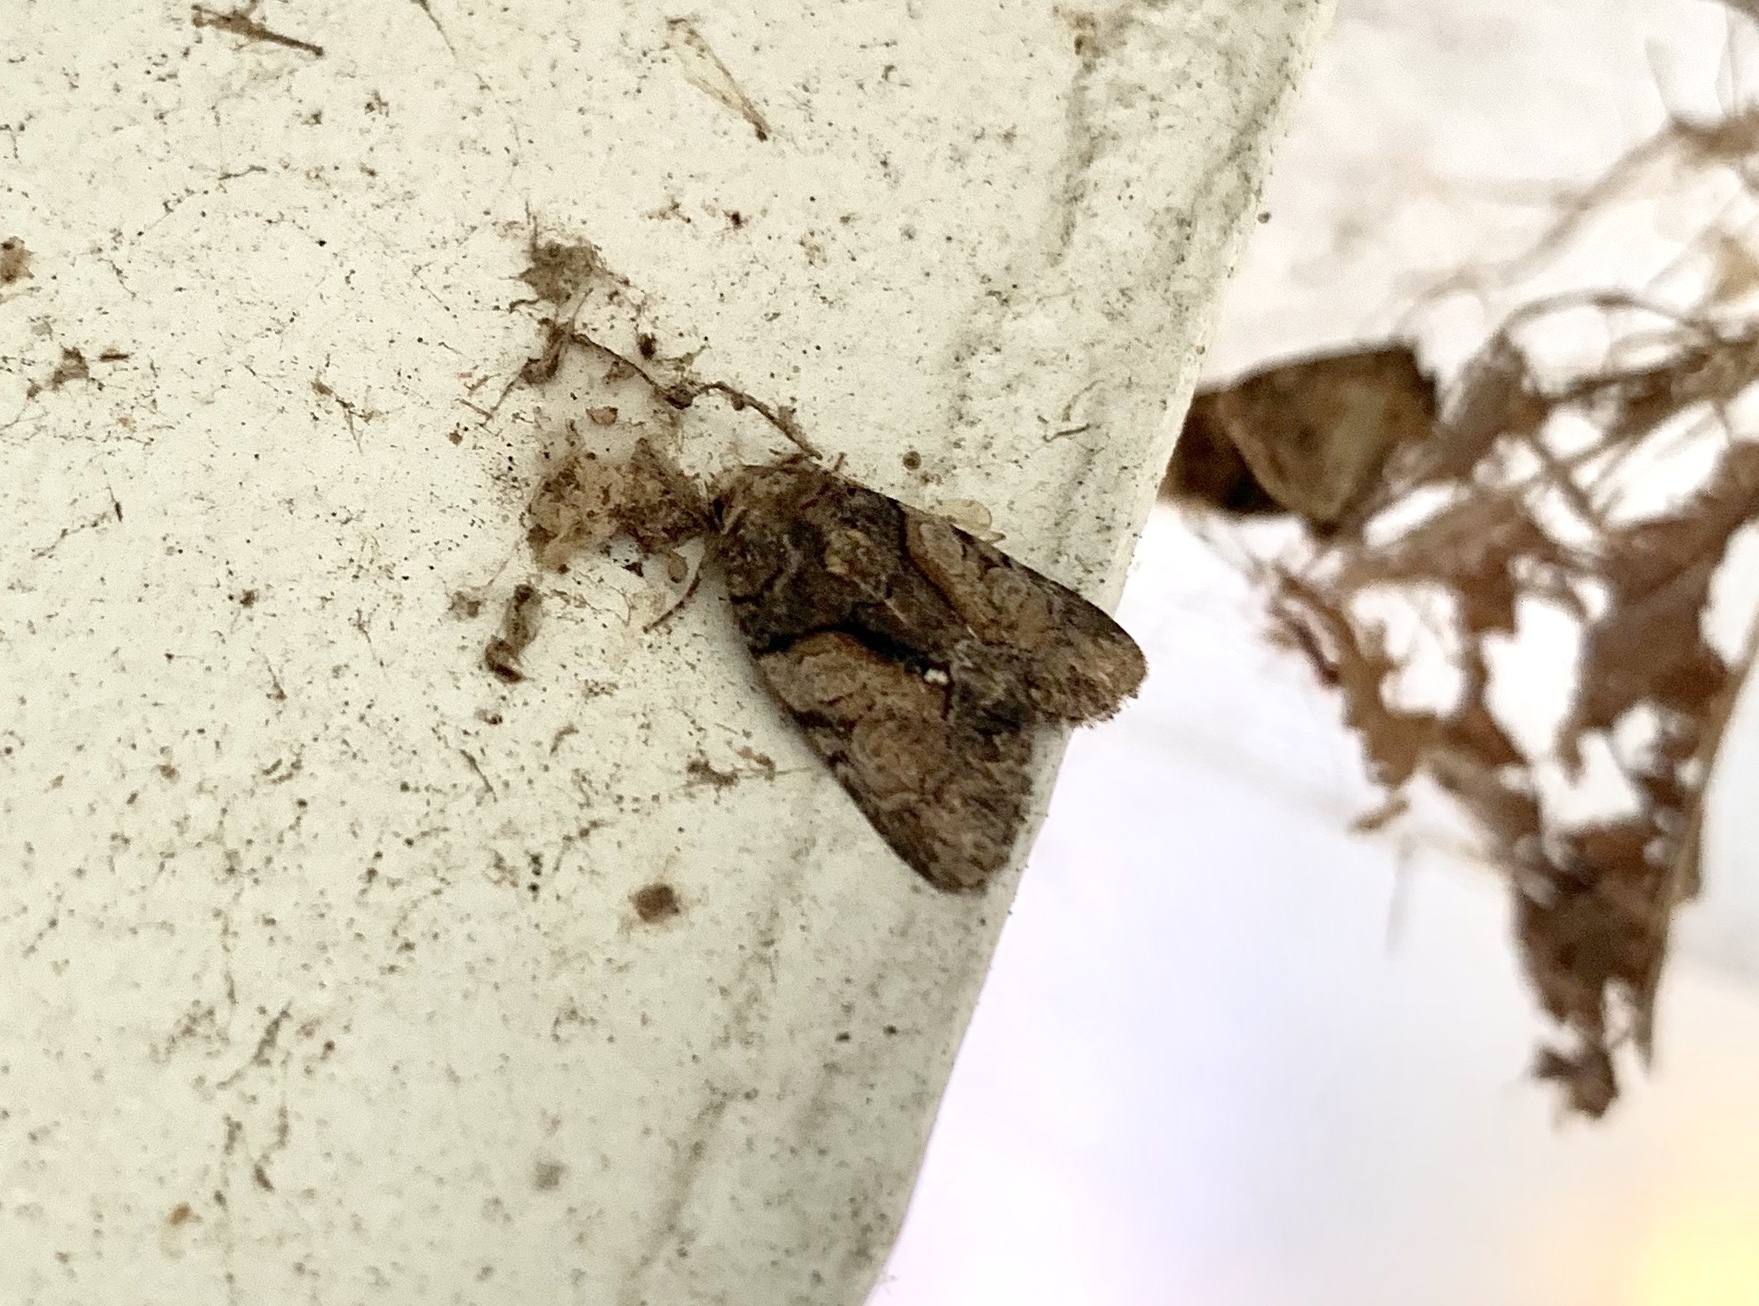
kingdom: Animalia
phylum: Arthropoda
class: Insecta
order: Lepidoptera
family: Noctuidae
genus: Chytonix
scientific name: Chytonix palliatricula
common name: Cloaked marvel
